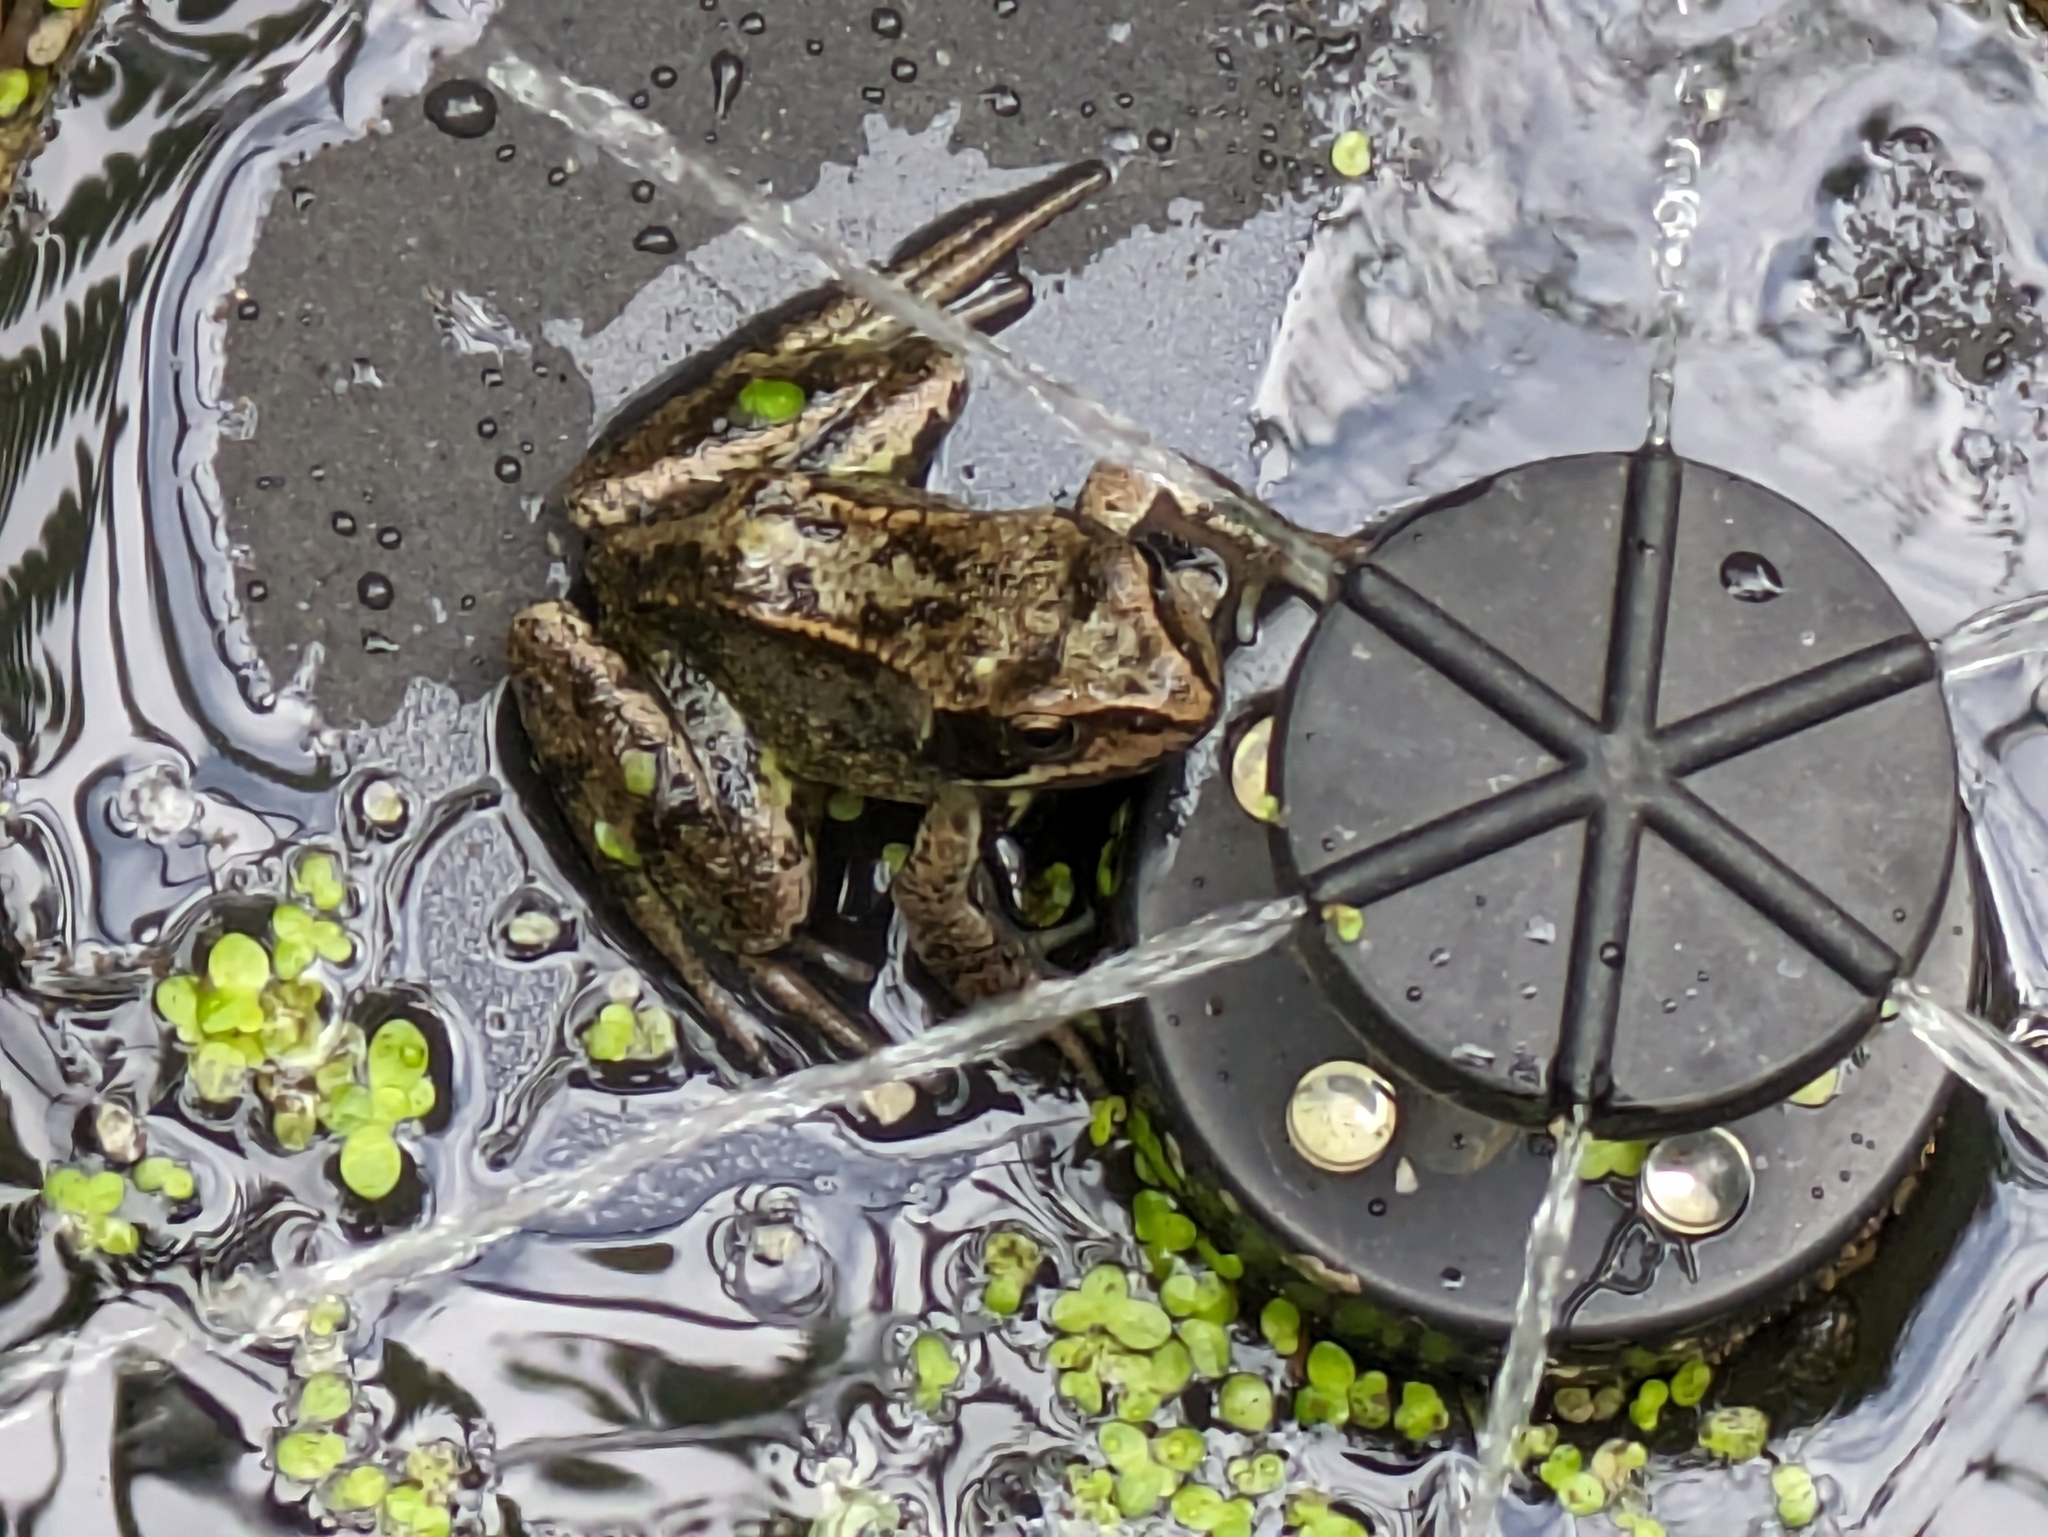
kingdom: Animalia
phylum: Chordata
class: Amphibia
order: Anura
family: Ranidae
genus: Rana
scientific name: Rana temporaria
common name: Common frog
